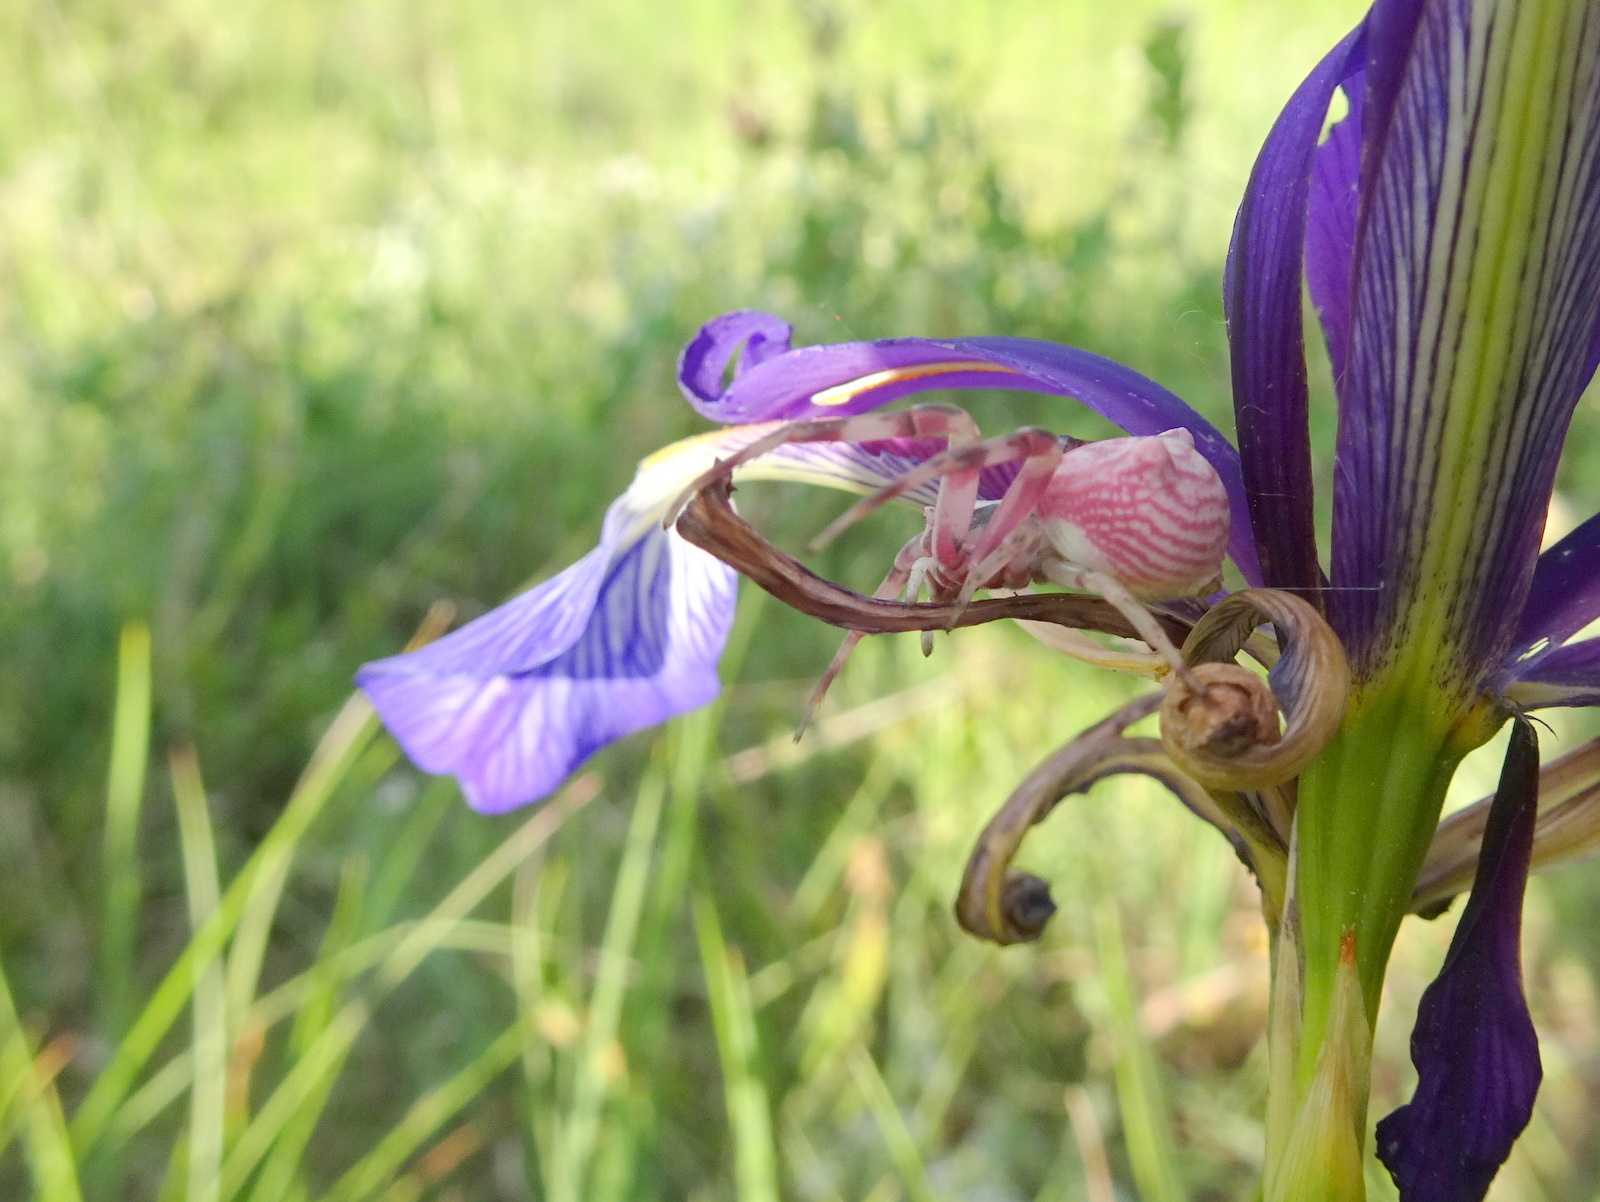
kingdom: Animalia
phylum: Arthropoda
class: Arachnida
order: Araneae
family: Thomisidae
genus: Thomisus
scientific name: Thomisus onustus
